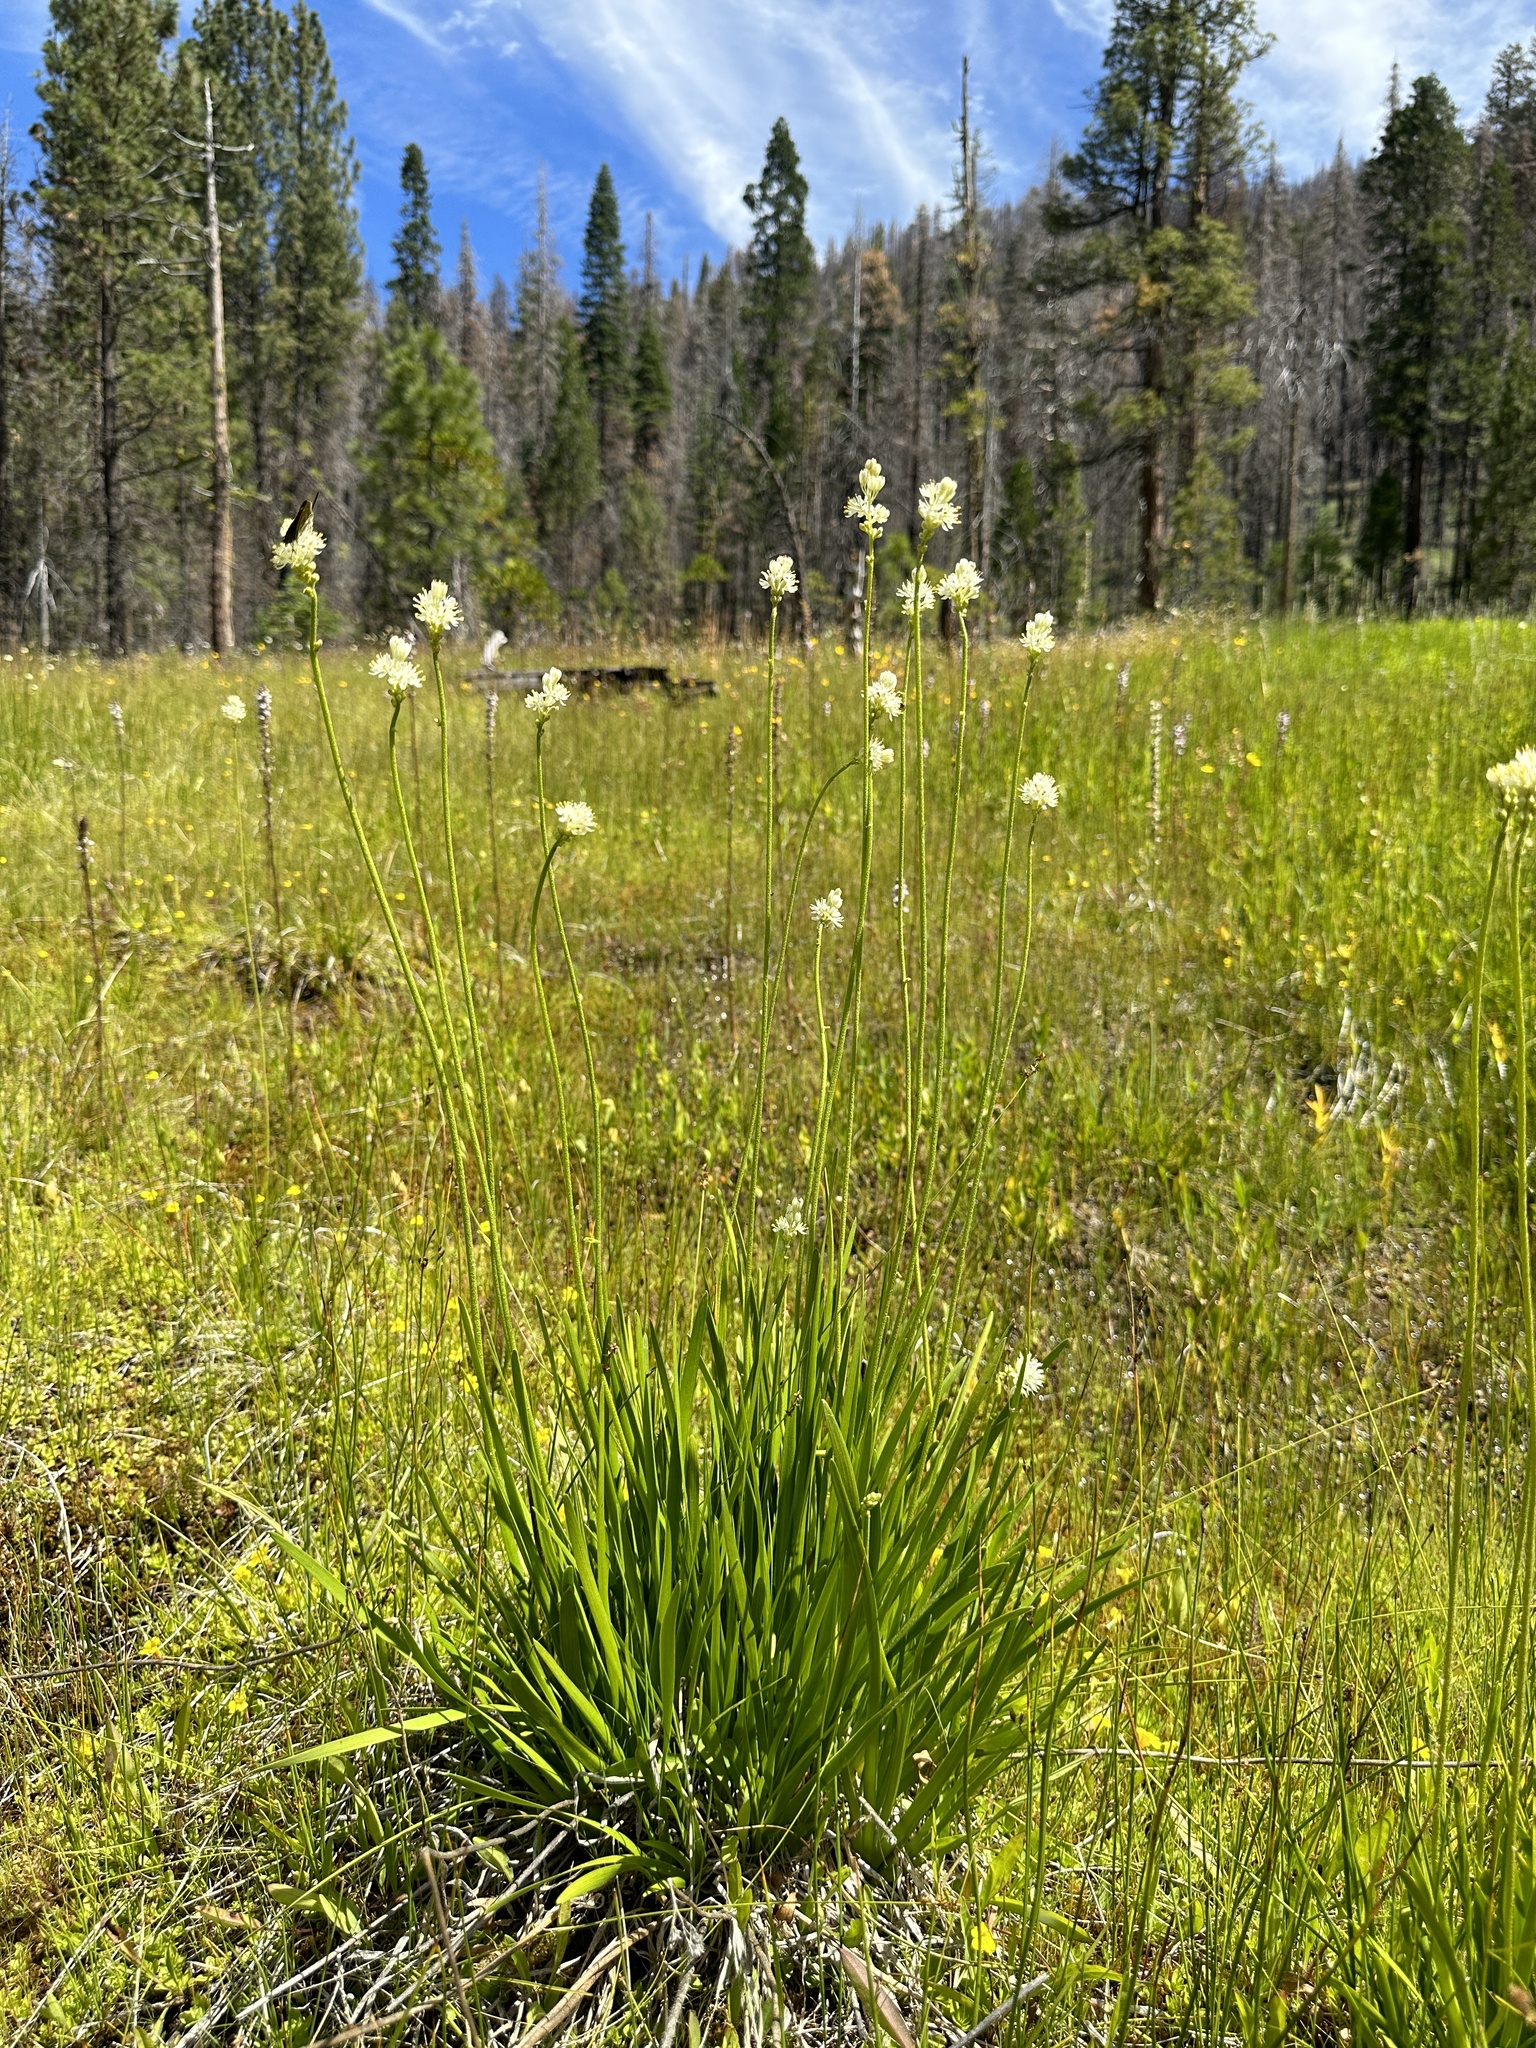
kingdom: Plantae
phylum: Tracheophyta
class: Liliopsida
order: Alismatales
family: Tofieldiaceae
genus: Triantha
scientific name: Triantha occidentalis
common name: Western false asphodel
